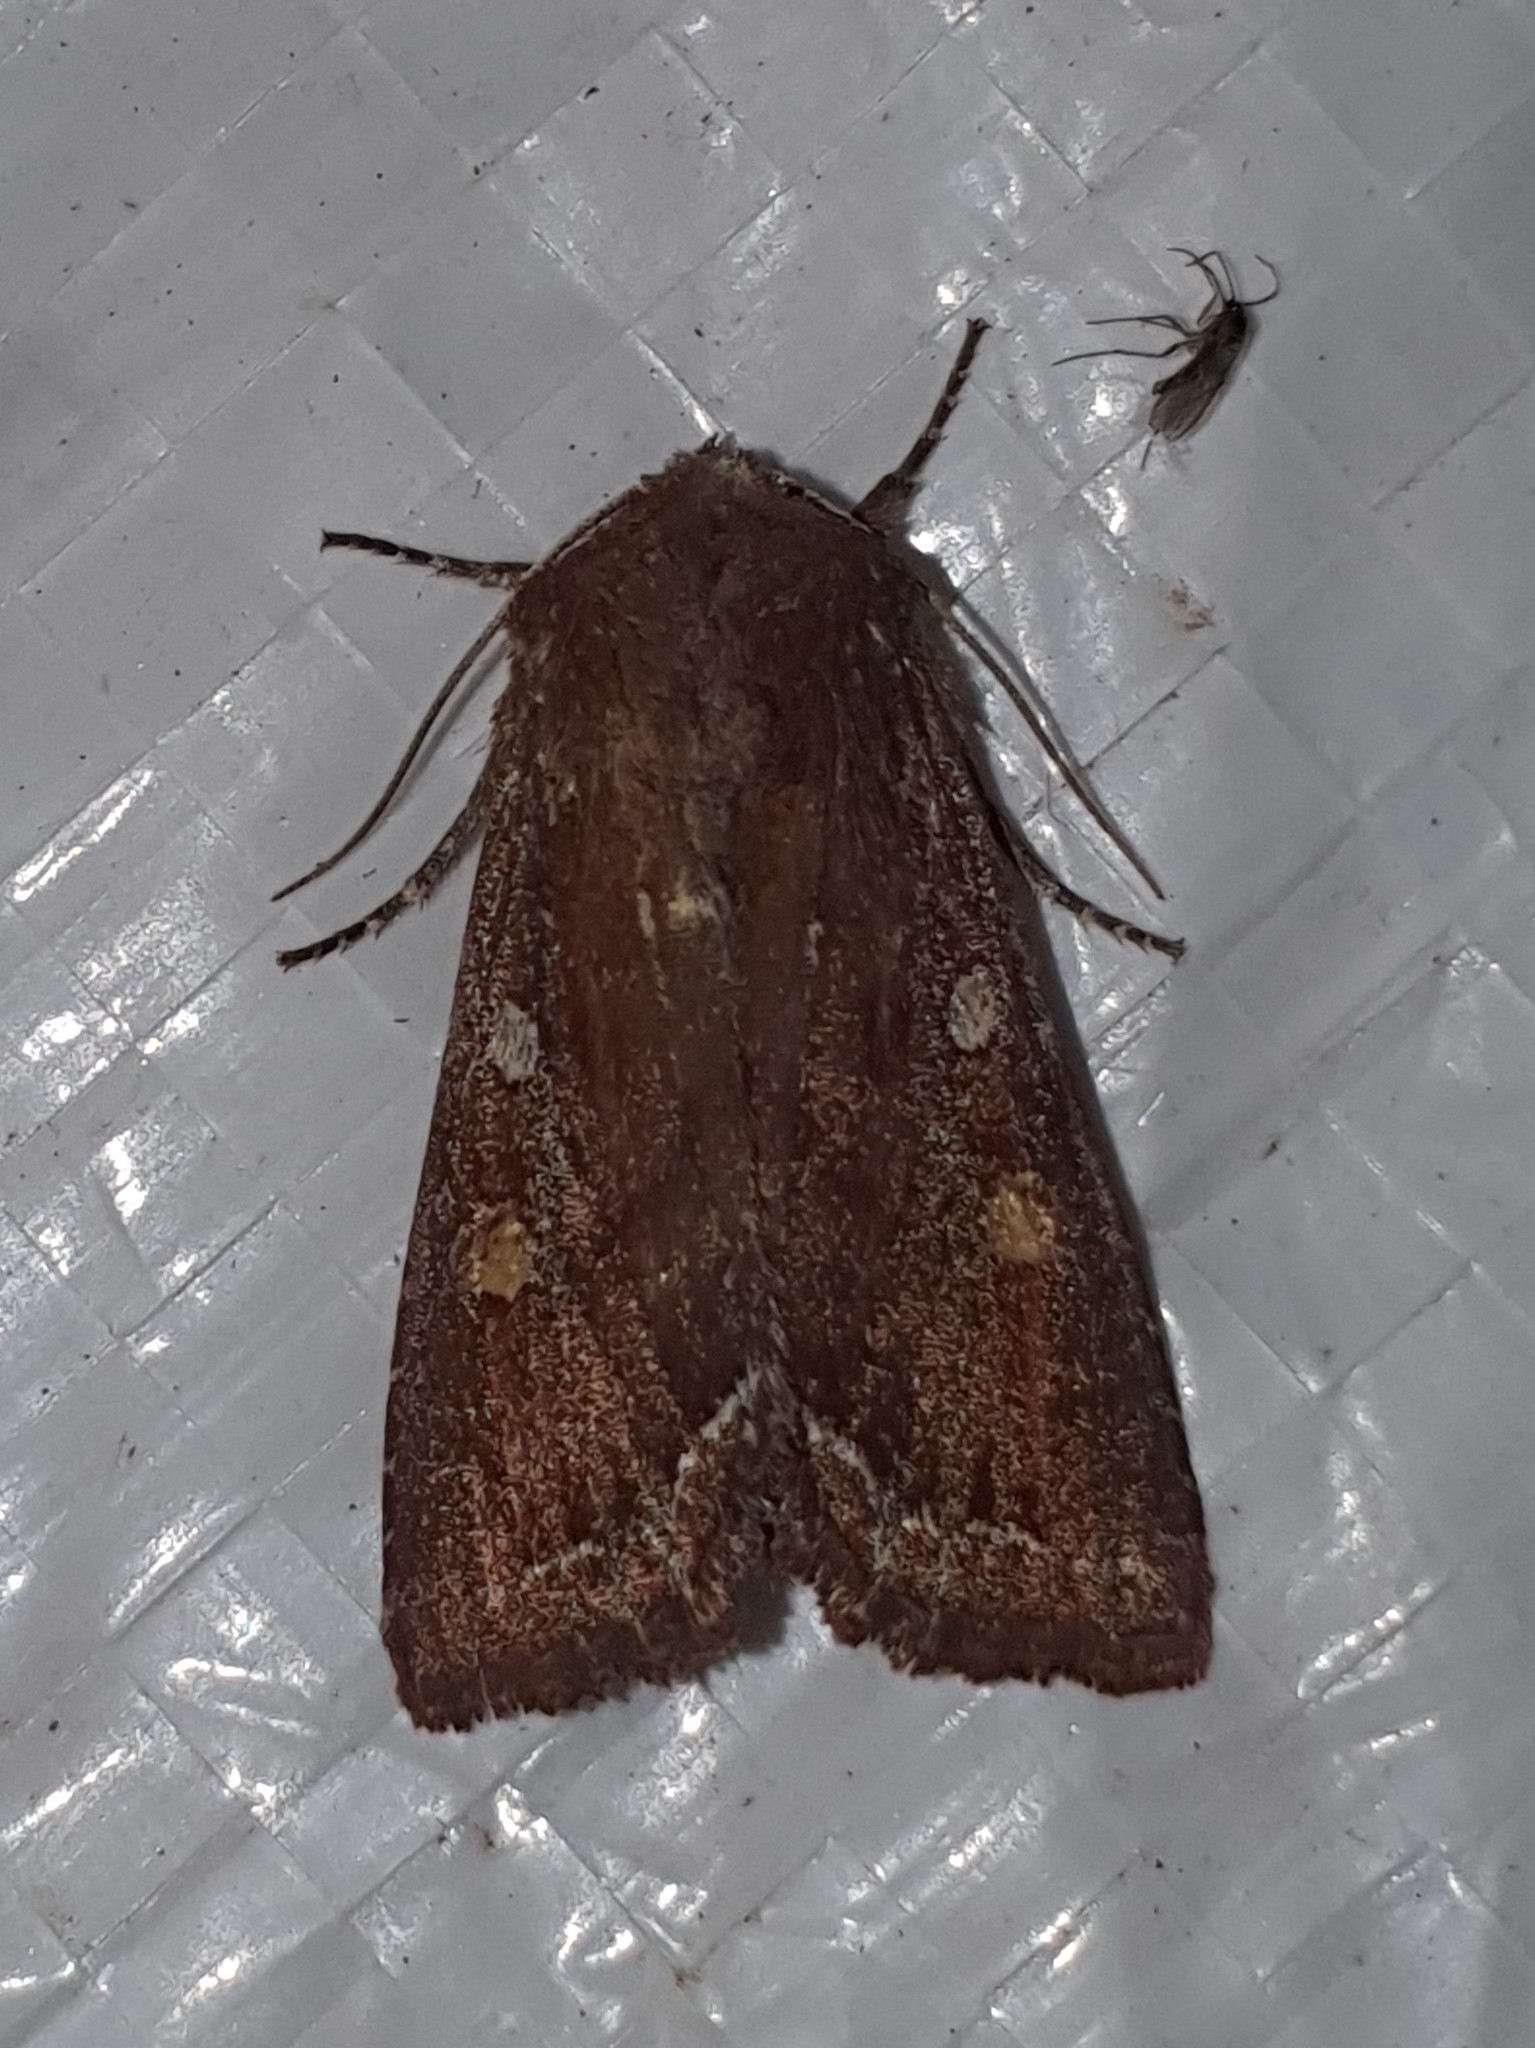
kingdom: Animalia
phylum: Arthropoda
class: Insecta
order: Lepidoptera
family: Noctuidae
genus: Lacanobia
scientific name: Lacanobia oleracea
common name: Bright-line brown-eye
